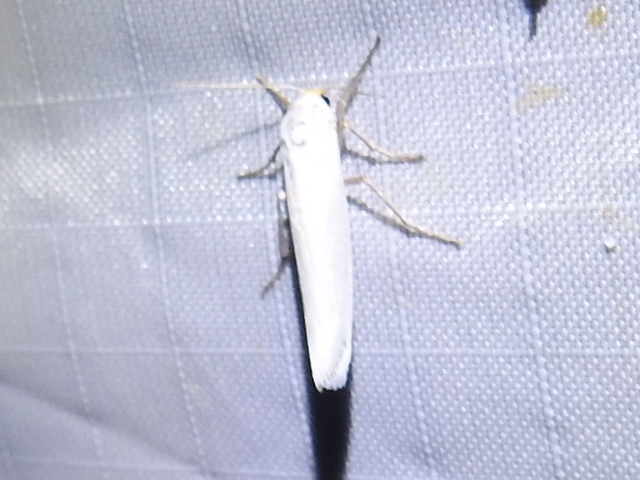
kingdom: Animalia
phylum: Arthropoda
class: Insecta
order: Lepidoptera
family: Erebidae
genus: Crambidia
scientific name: Crambidia cephalica
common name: Yellow-headed lichen moth
